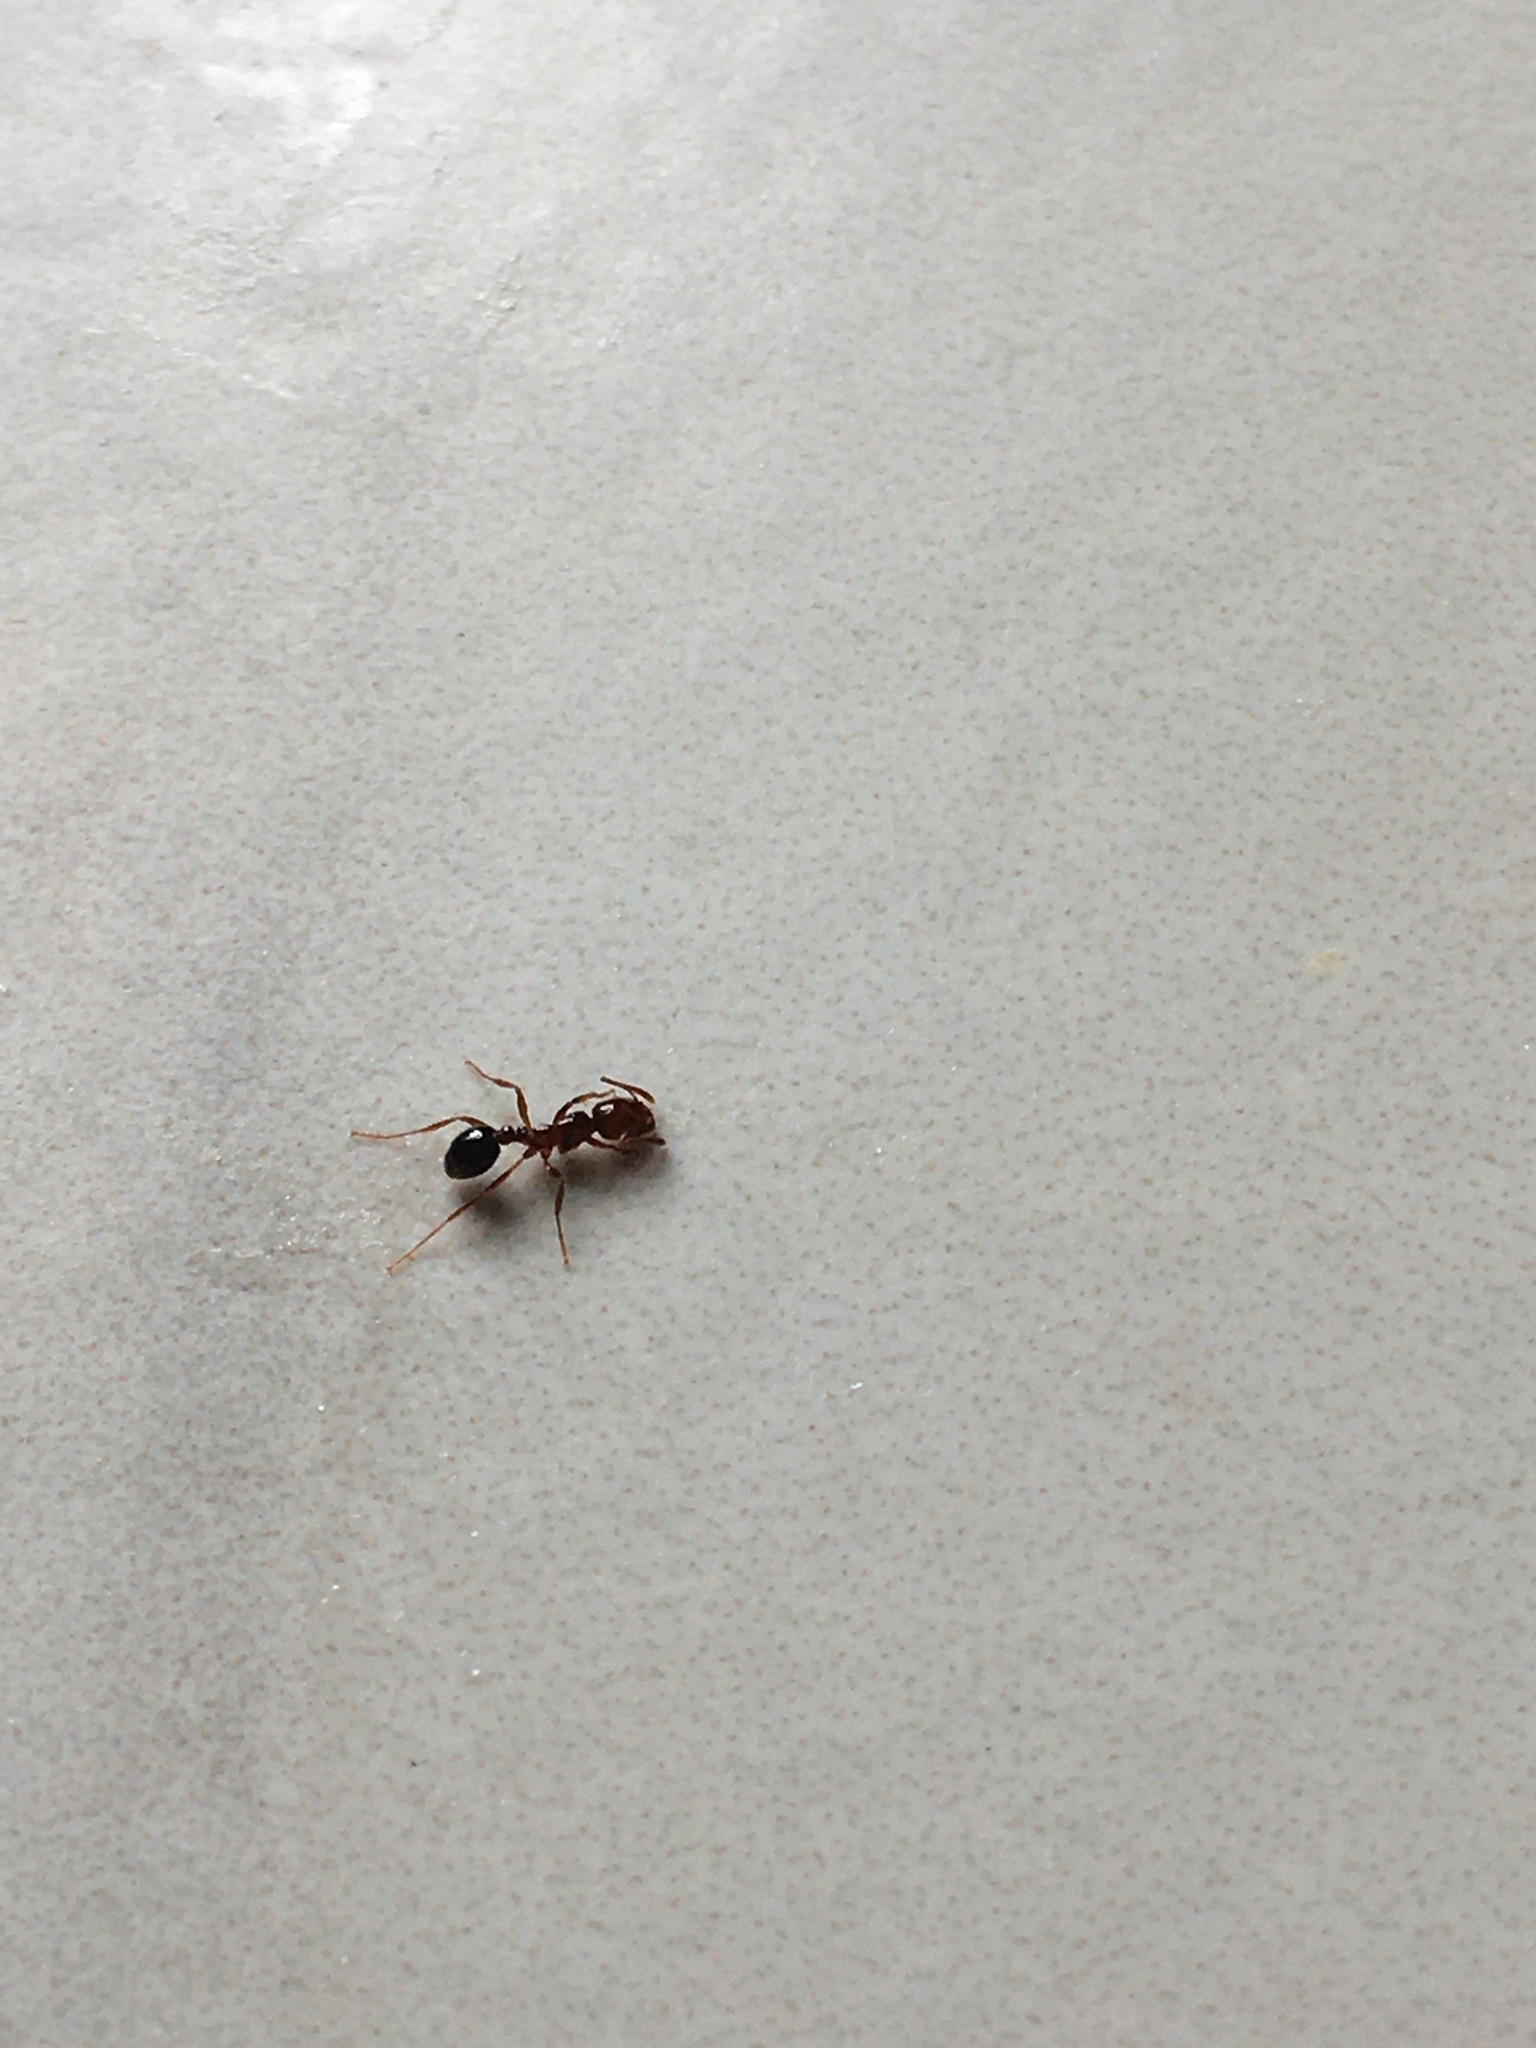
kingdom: Animalia
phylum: Arthropoda
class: Insecta
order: Hymenoptera
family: Formicidae
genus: Solenopsis
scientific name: Solenopsis invicta
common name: Red imported fire ant
